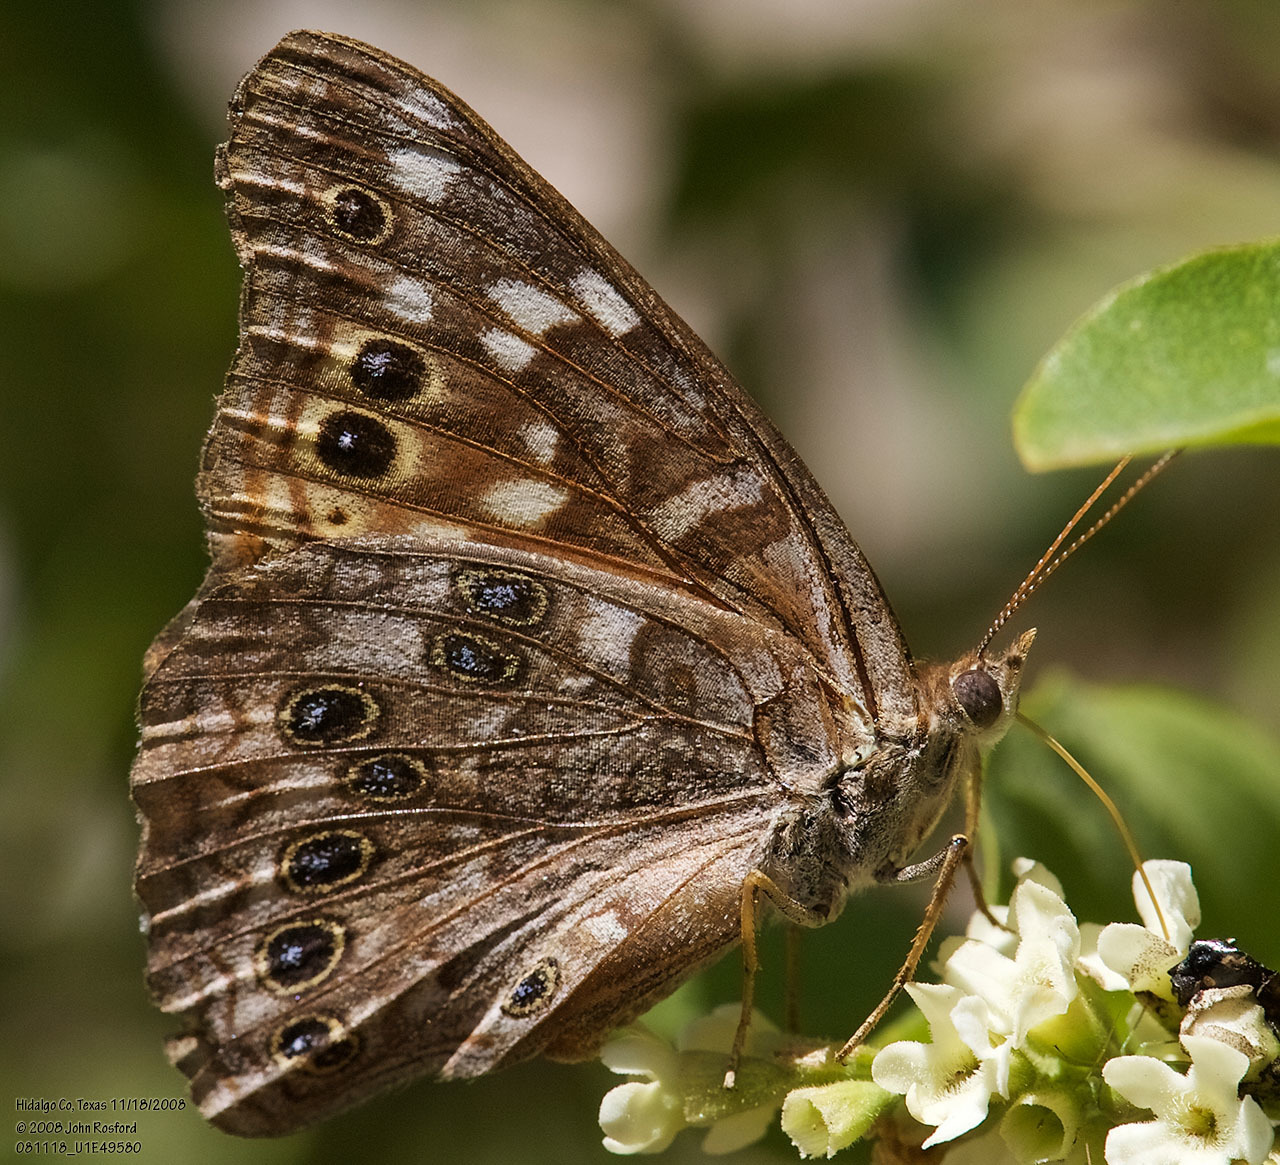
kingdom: Animalia
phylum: Arthropoda
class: Insecta
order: Lepidoptera
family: Nymphalidae
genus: Asterocampa
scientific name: Asterocampa leilia
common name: Empress leilia
